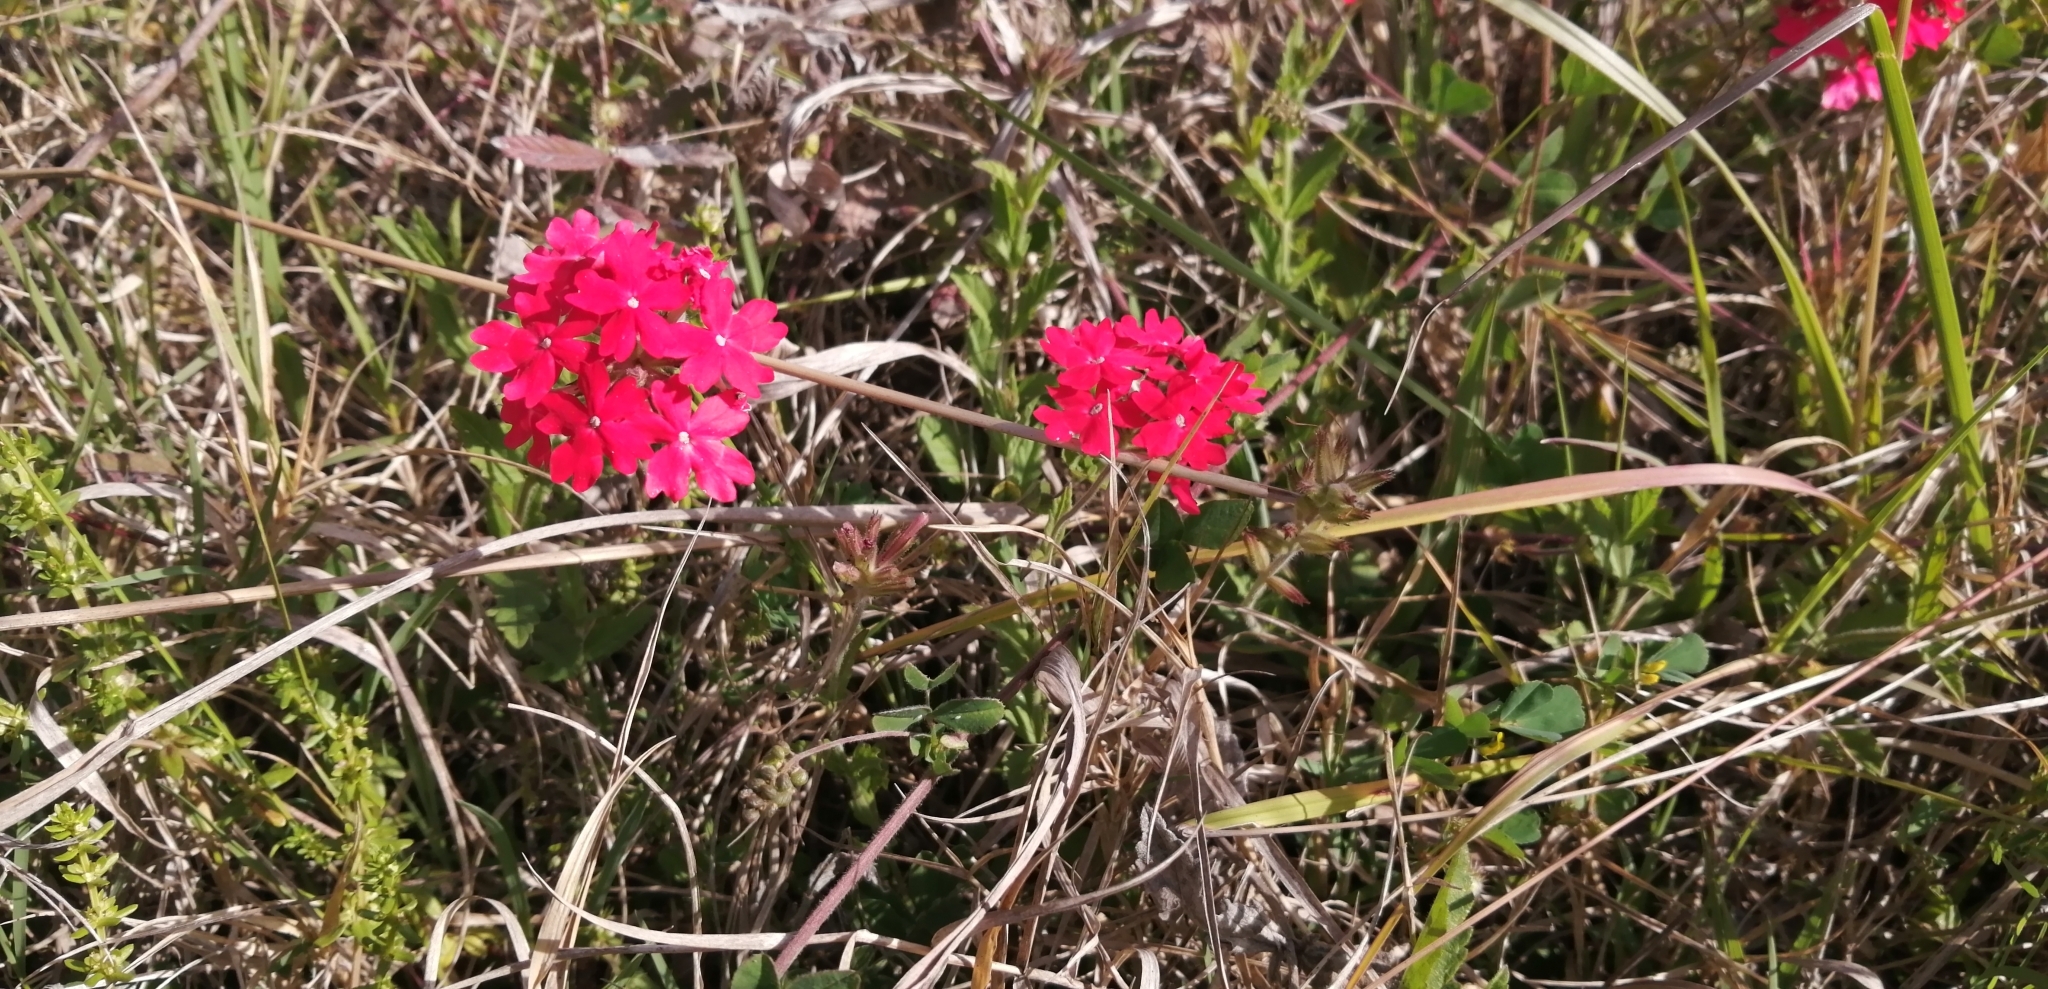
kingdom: Plantae
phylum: Tracheophyta
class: Magnoliopsida
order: Lamiales
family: Verbenaceae
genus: Verbena
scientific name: Verbena peruviana
